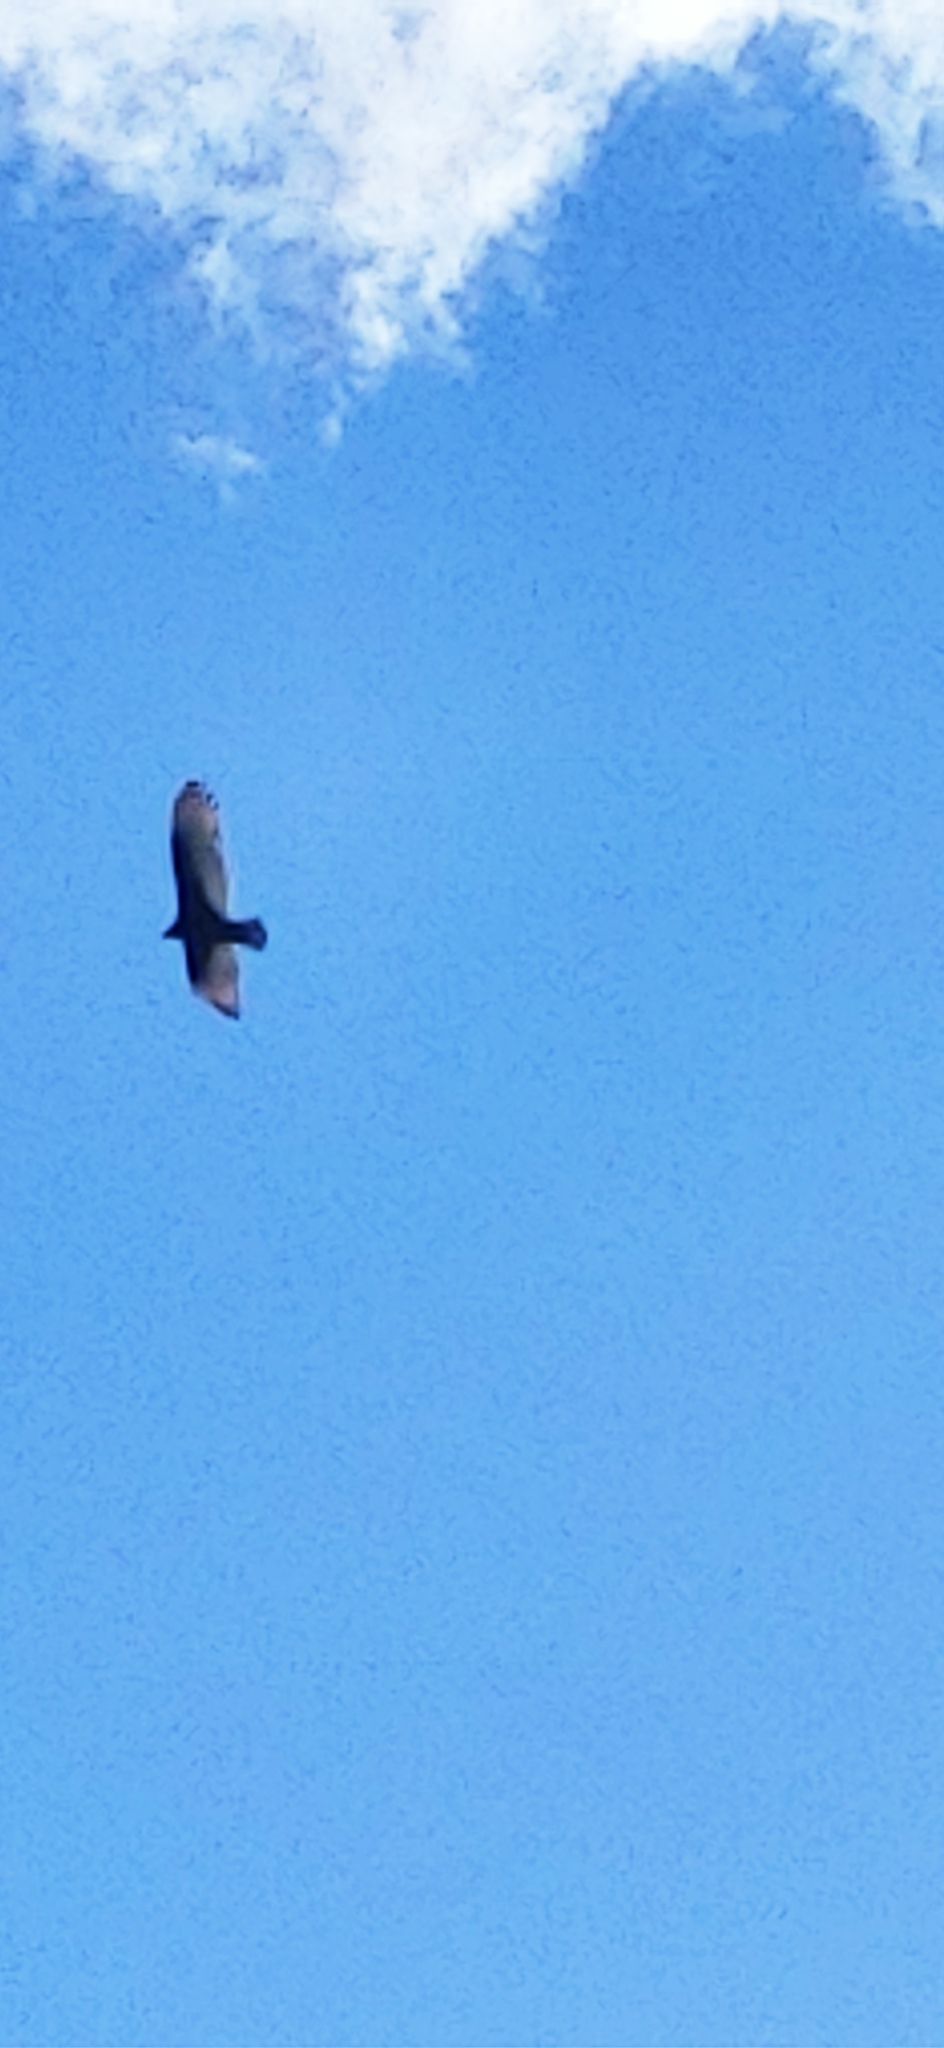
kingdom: Animalia
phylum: Chordata
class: Aves
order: Accipitriformes
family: Cathartidae
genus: Cathartes
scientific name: Cathartes aura
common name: Turkey vulture
